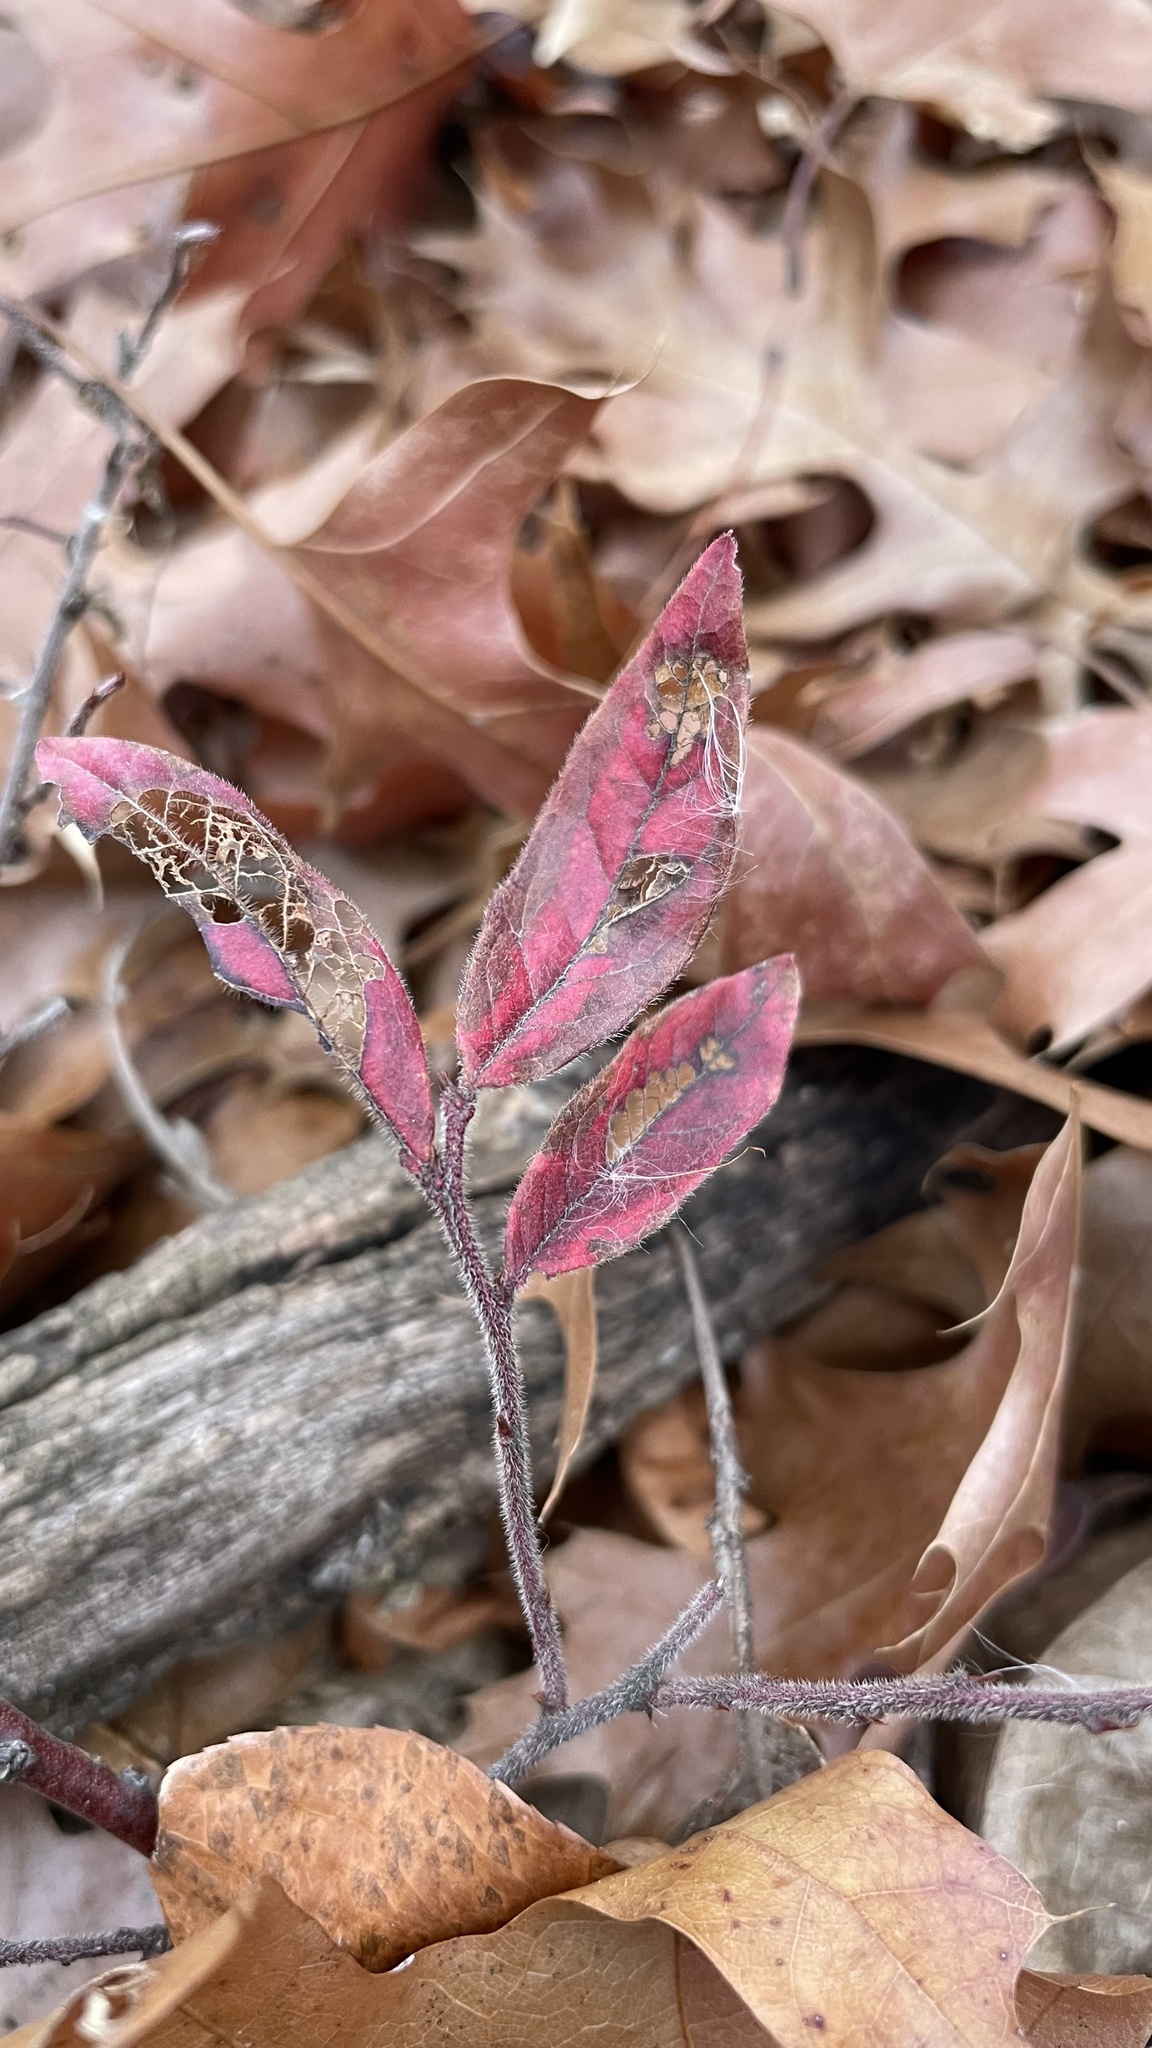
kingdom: Plantae
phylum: Tracheophyta
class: Magnoliopsida
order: Ericales
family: Ericaceae
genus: Vaccinium
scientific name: Vaccinium myrtilloides
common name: Canada blueberry
